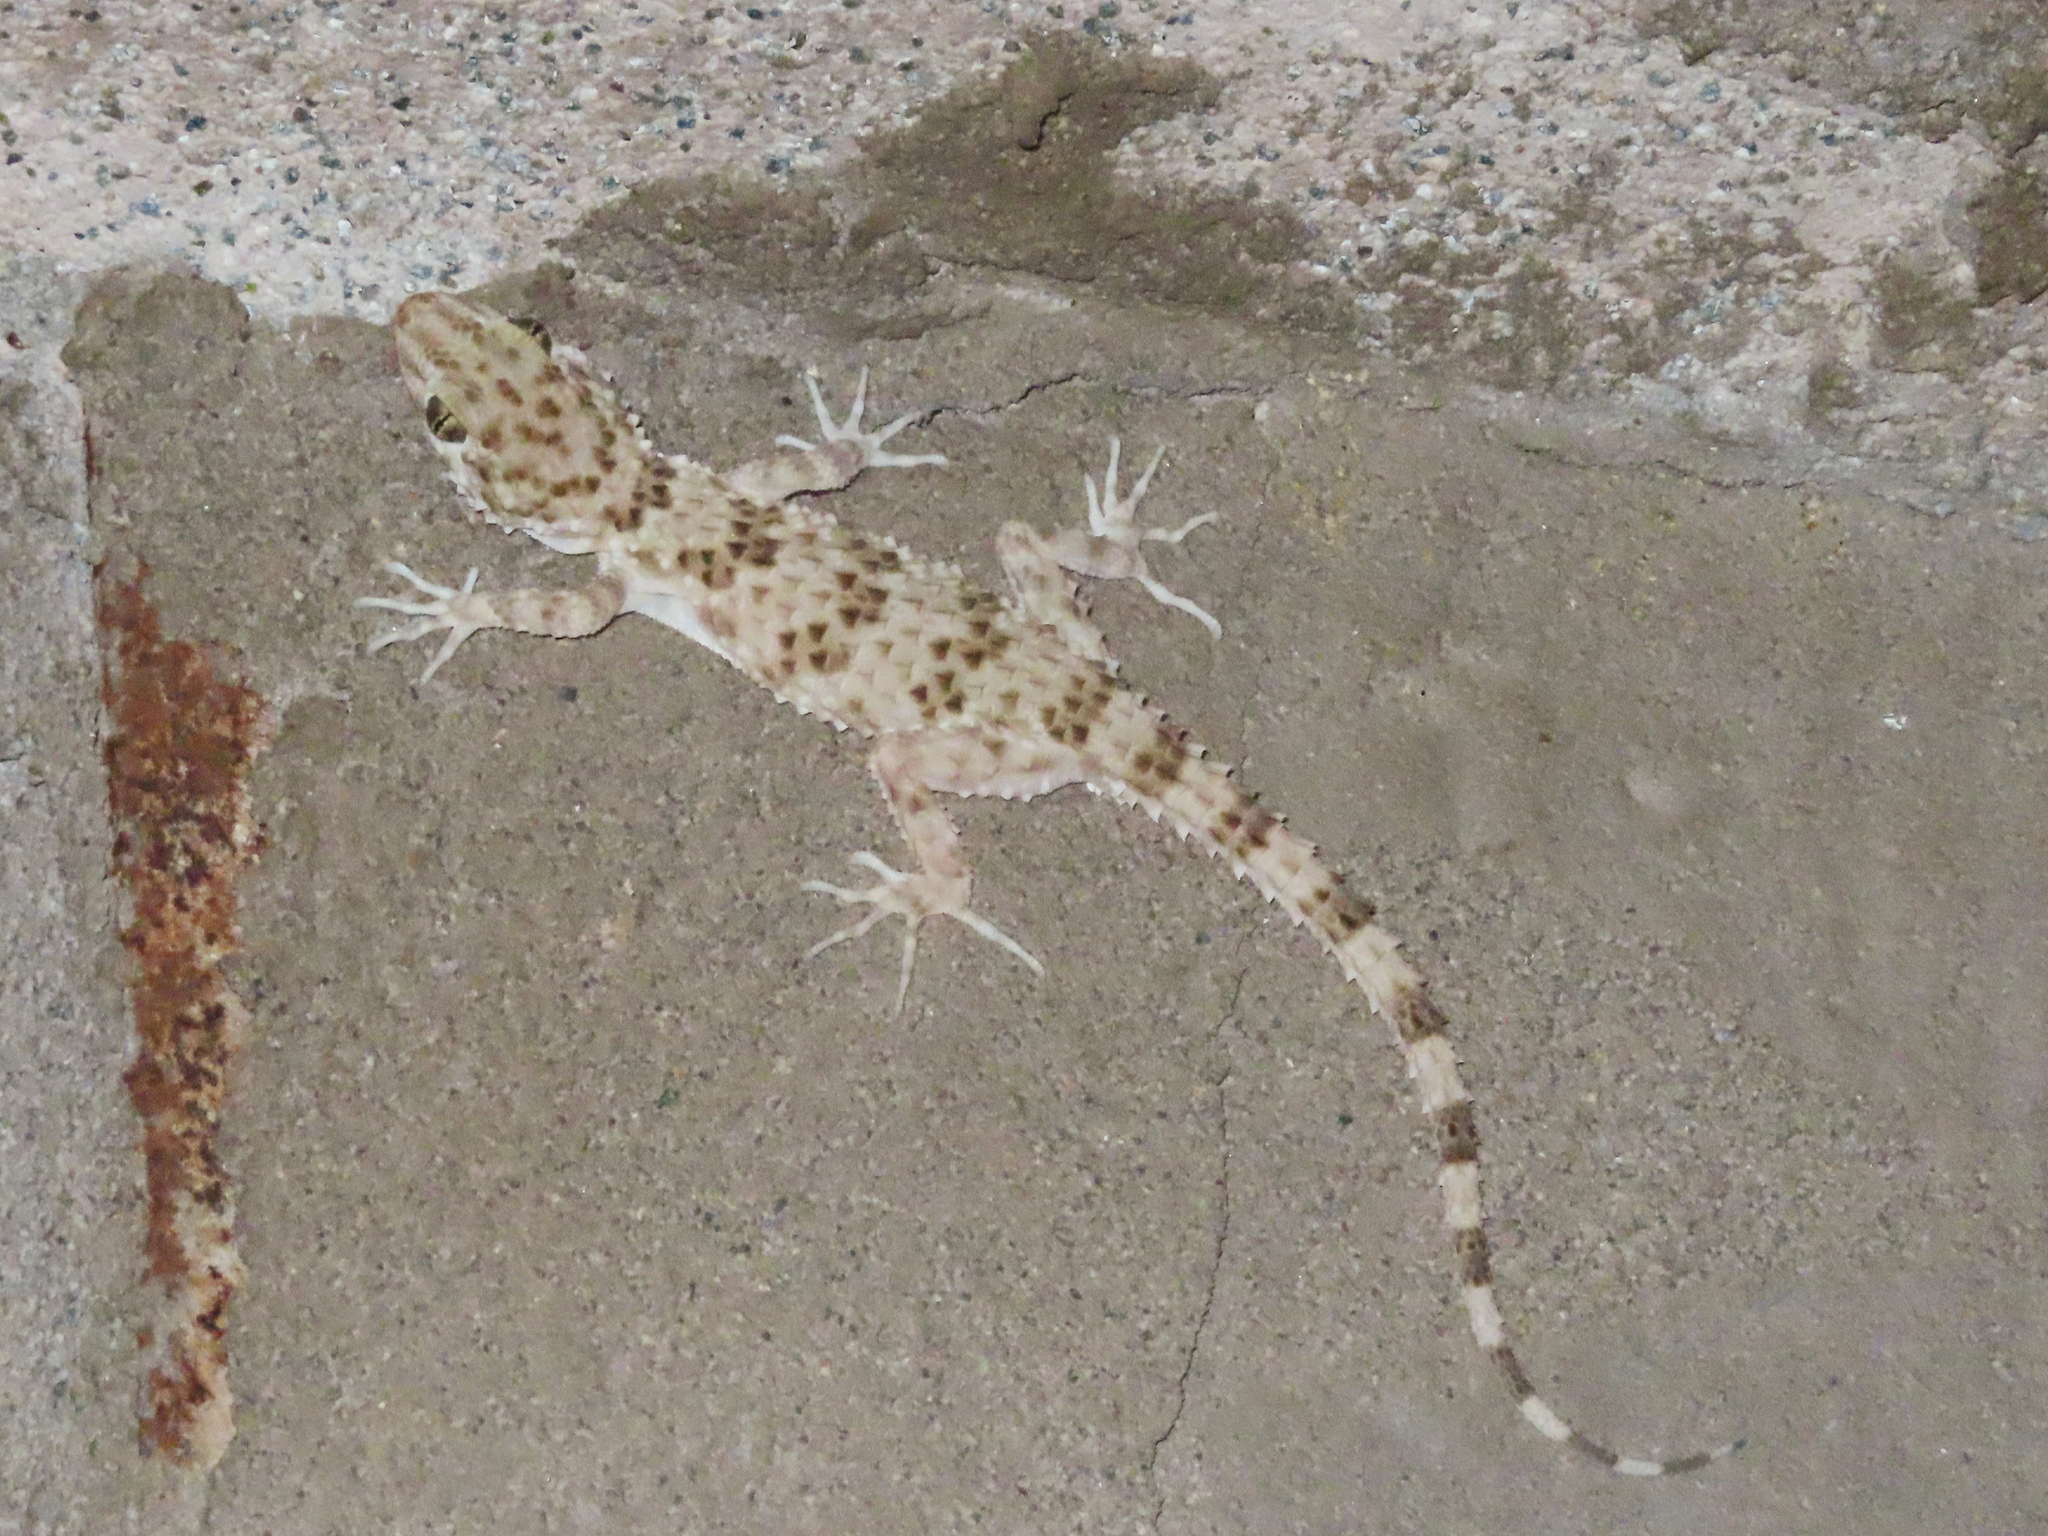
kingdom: Animalia
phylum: Chordata
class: Squamata
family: Gekkonidae
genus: Tenuidactylus
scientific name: Tenuidactylus caspius
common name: Caspian bent-toed gecko
